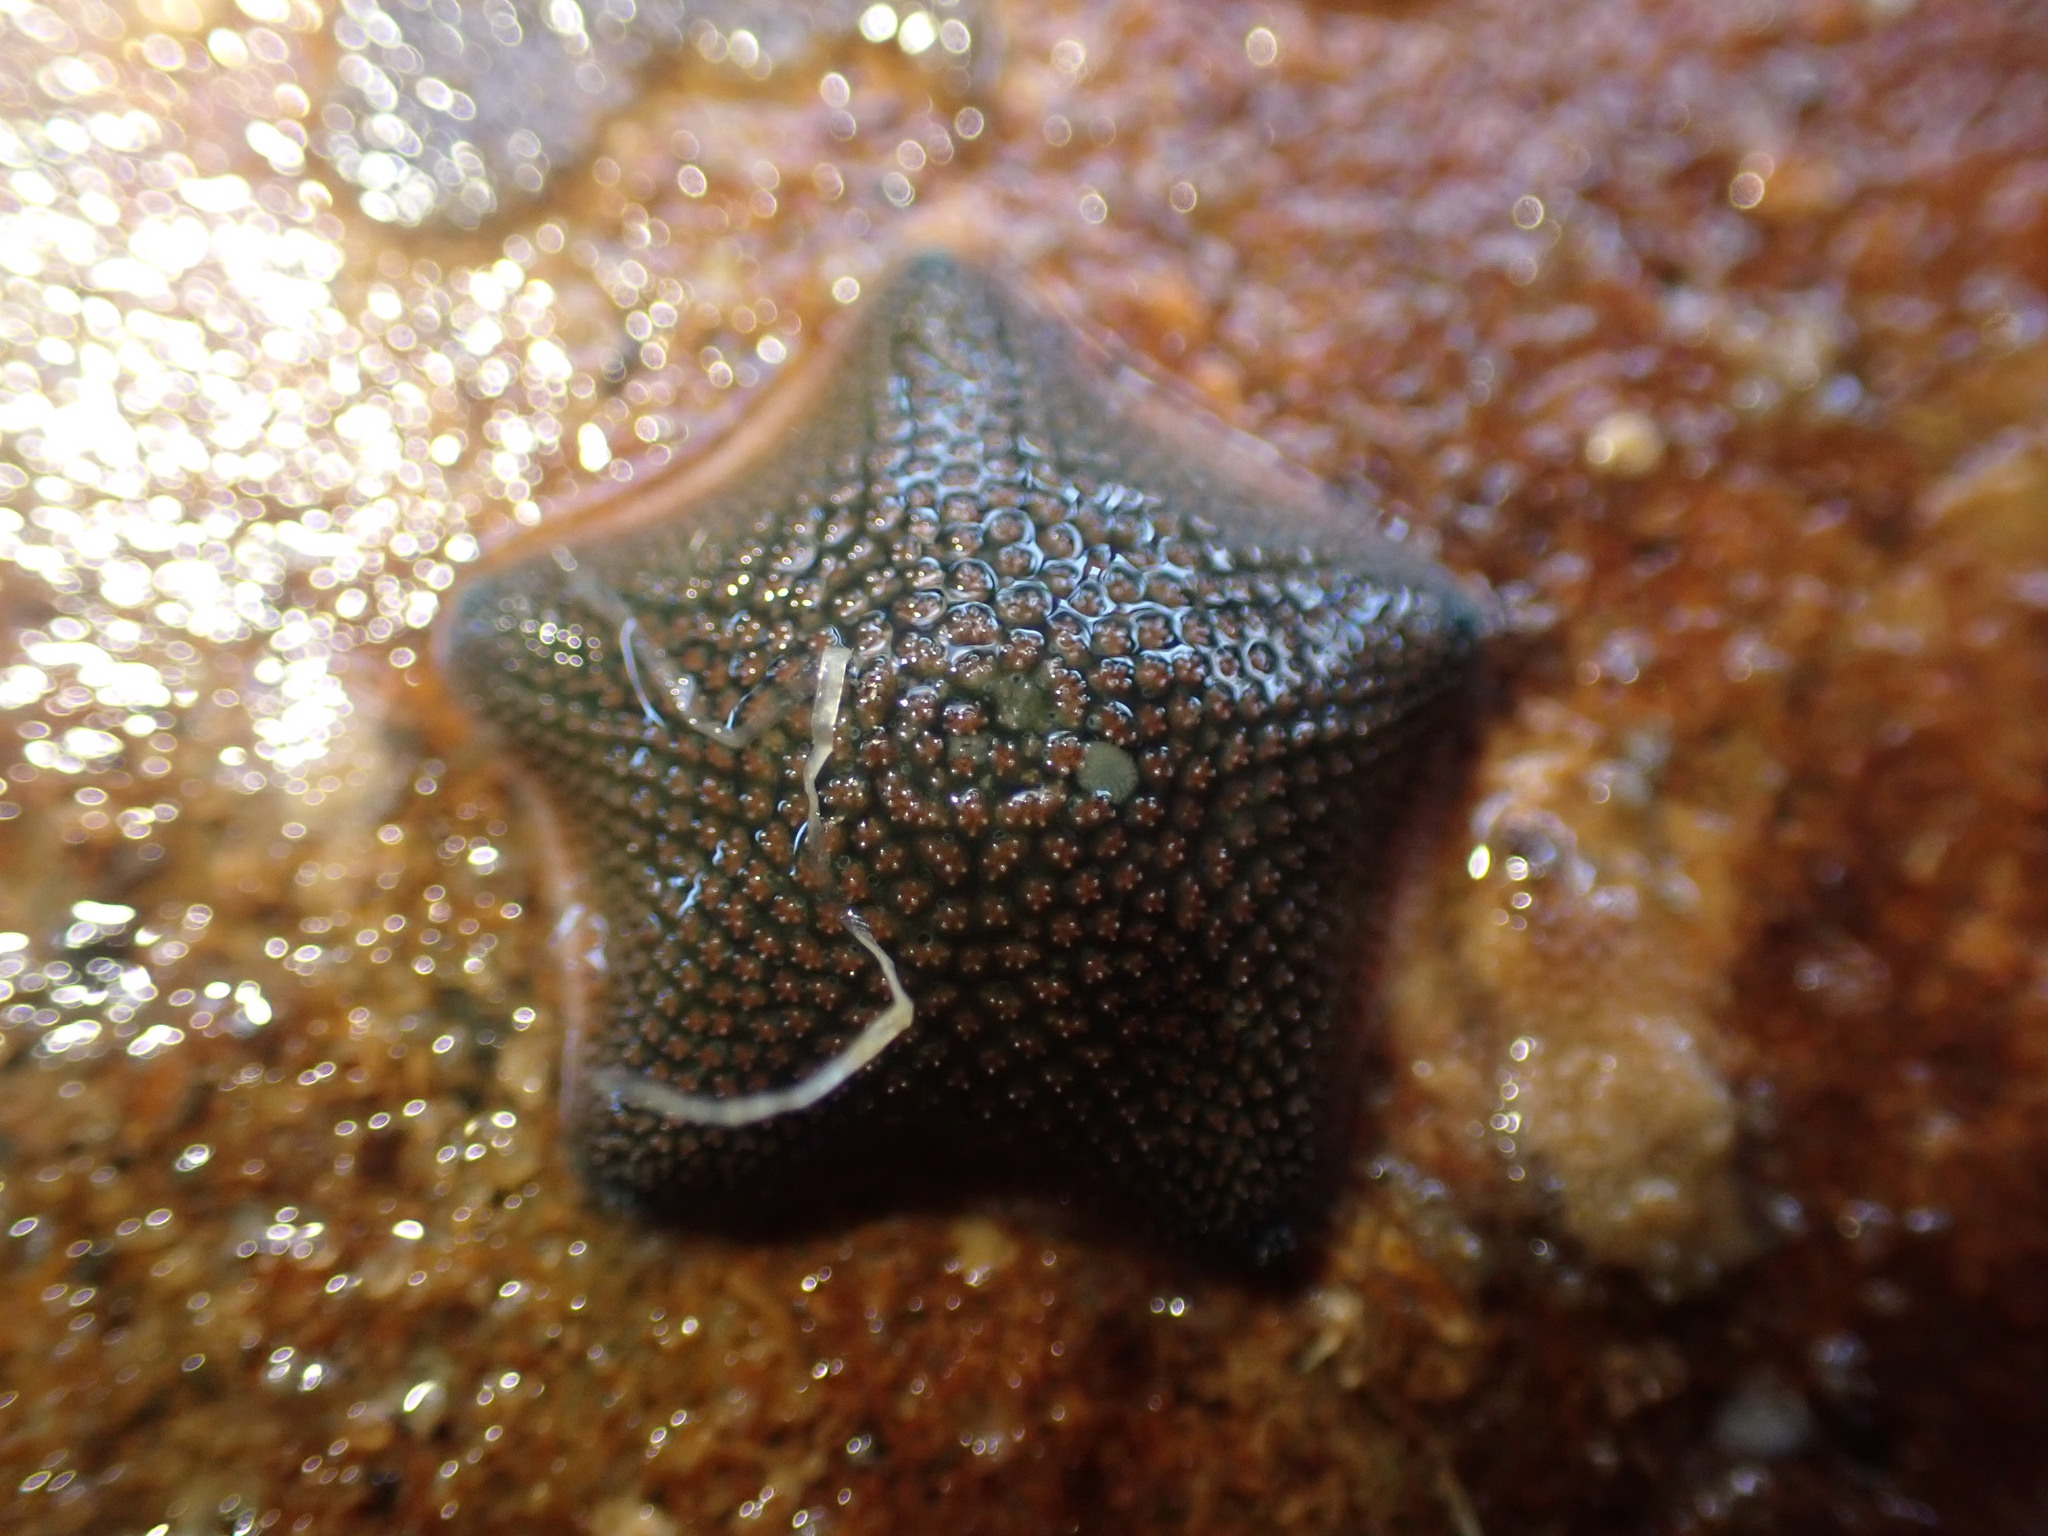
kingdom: Animalia
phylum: Echinodermata
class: Asteroidea
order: Valvatida
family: Asterinidae
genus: Patiriella
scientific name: Patiriella regularis
